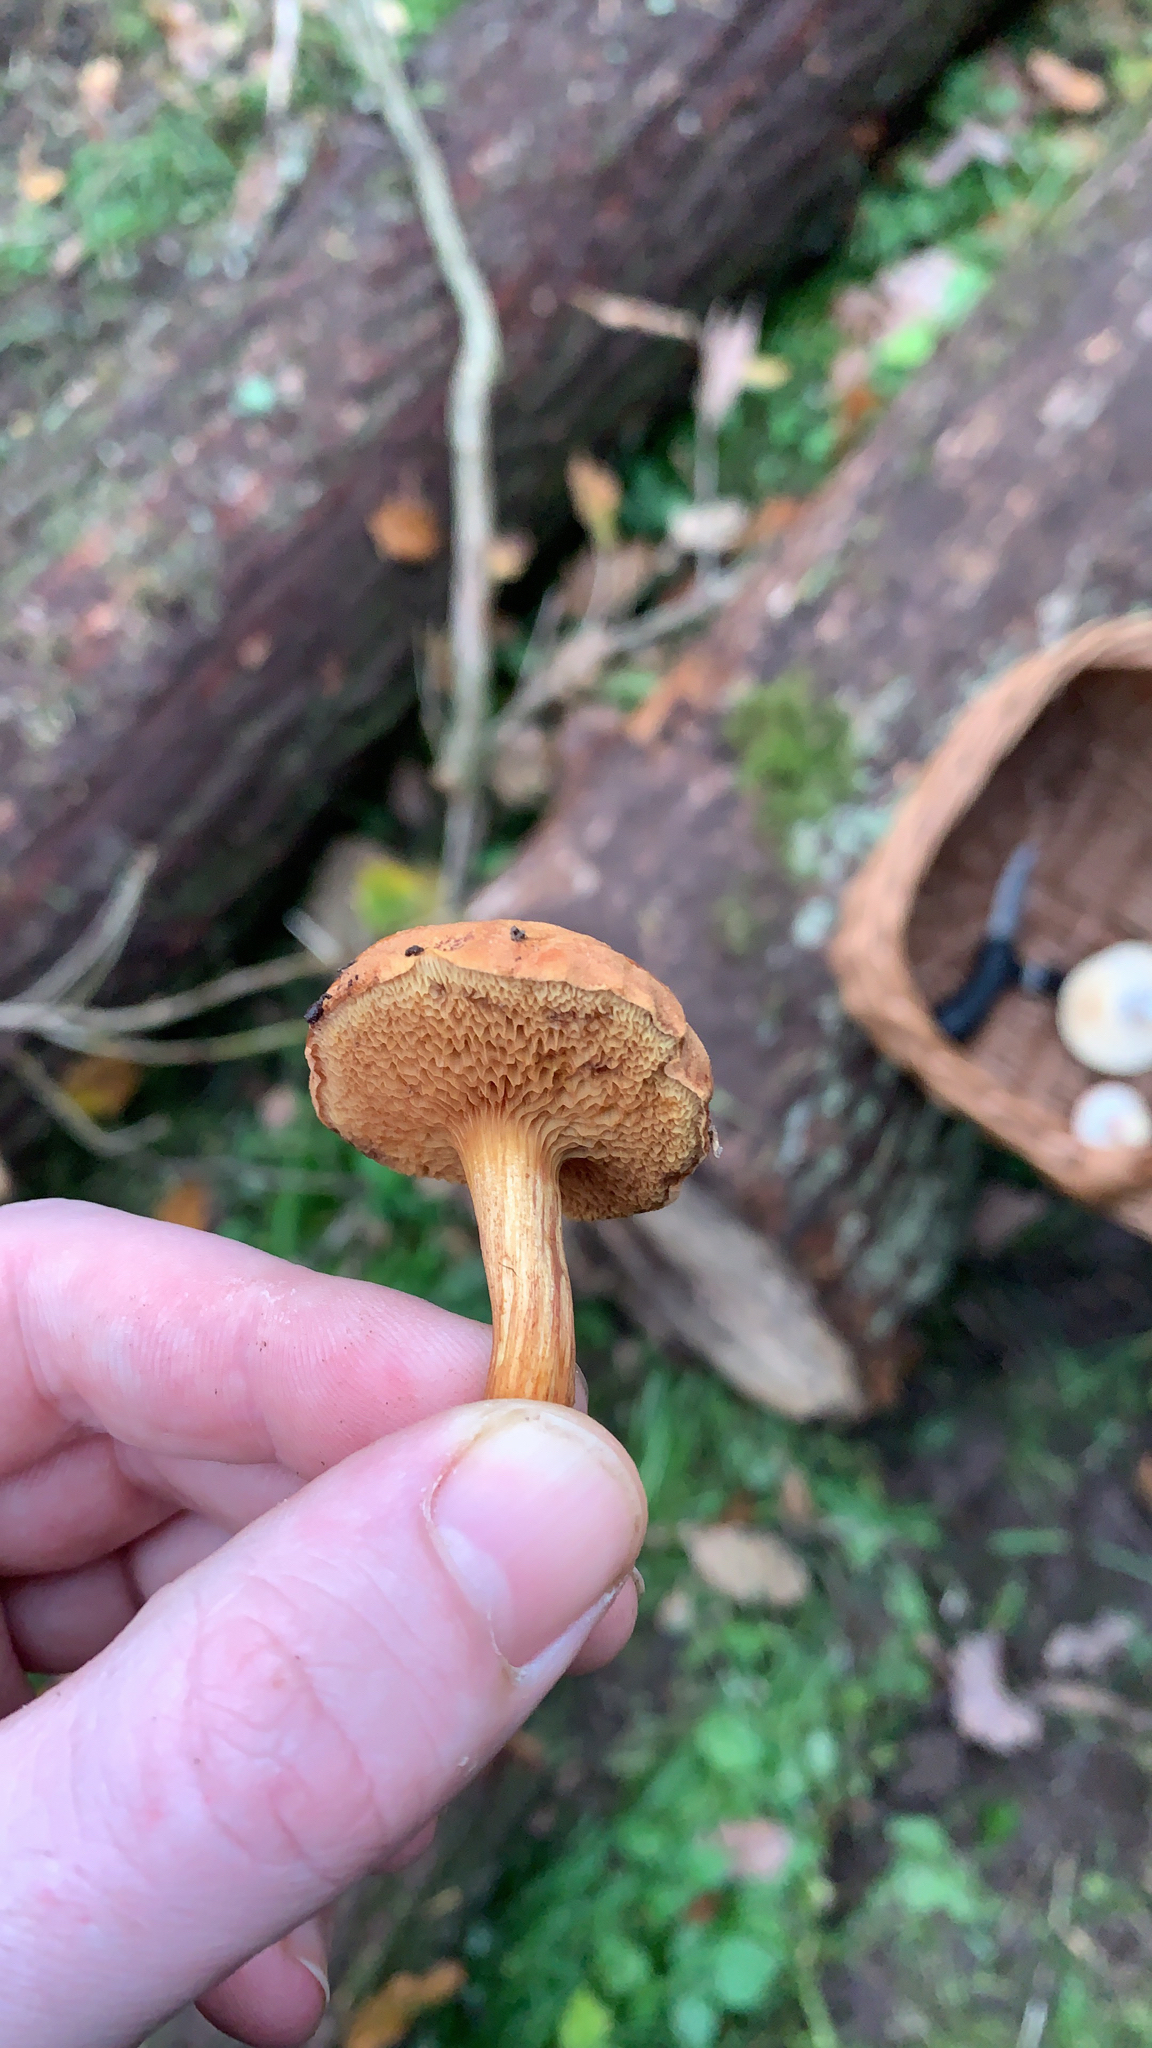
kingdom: Fungi
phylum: Basidiomycota
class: Agaricomycetes
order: Boletales
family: Boletaceae
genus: Chalciporus
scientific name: Chalciporus piperatus
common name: Peppery bolete
